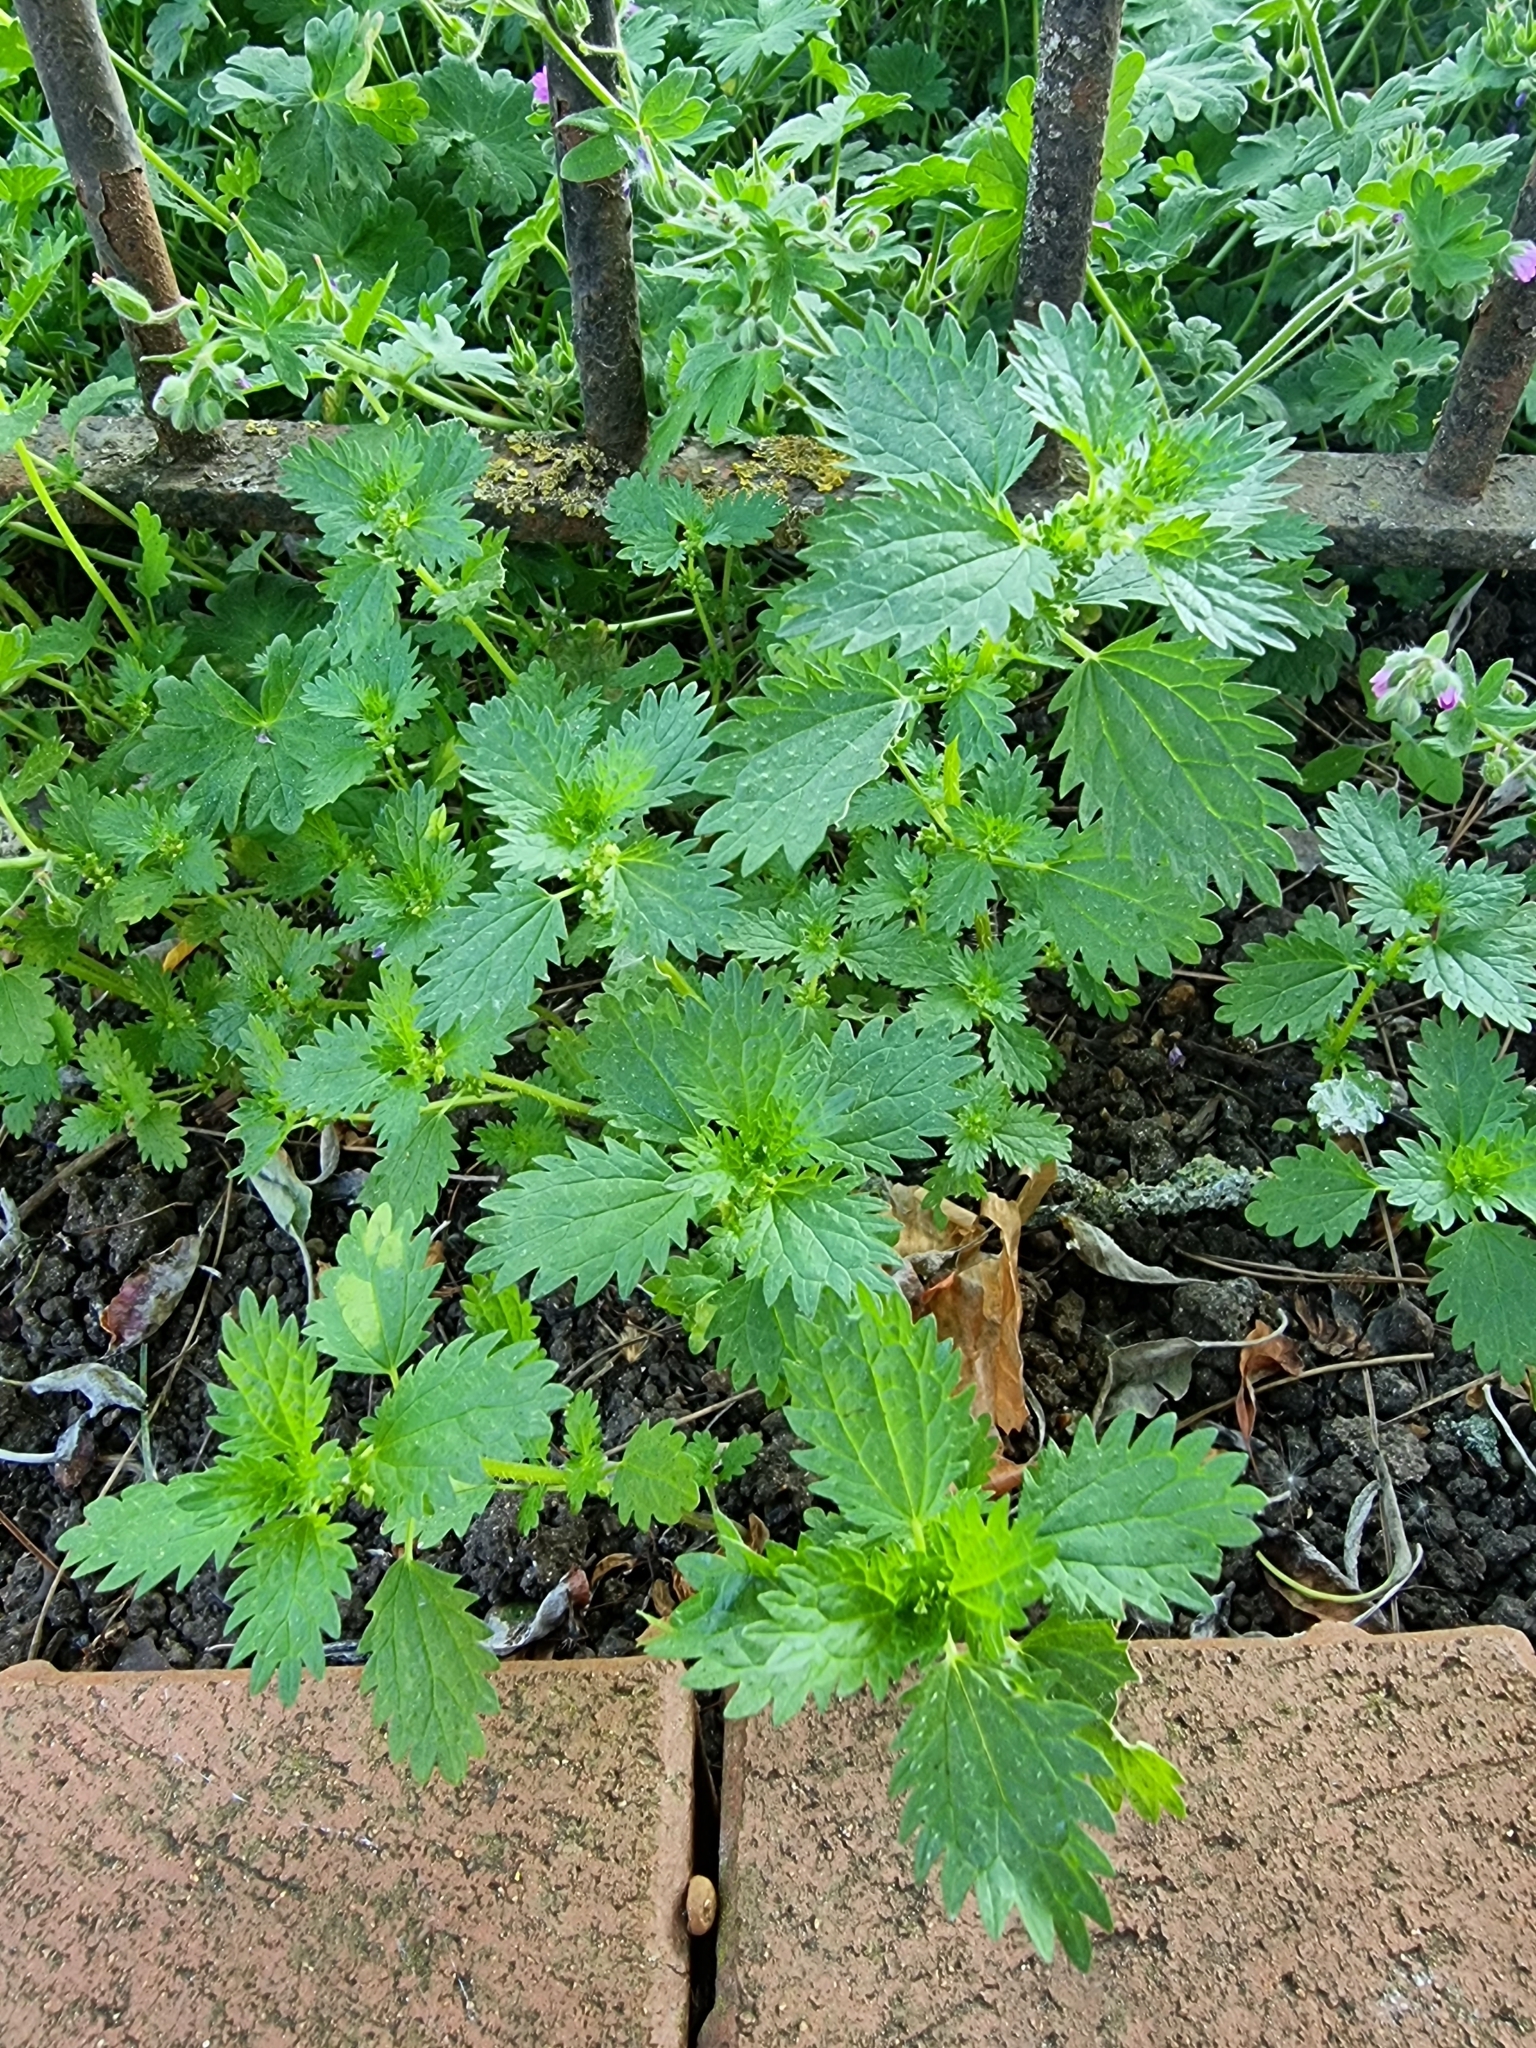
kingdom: Plantae
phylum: Tracheophyta
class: Magnoliopsida
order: Rosales
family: Urticaceae
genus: Urtica
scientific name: Urtica urens
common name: Dwarf nettle
